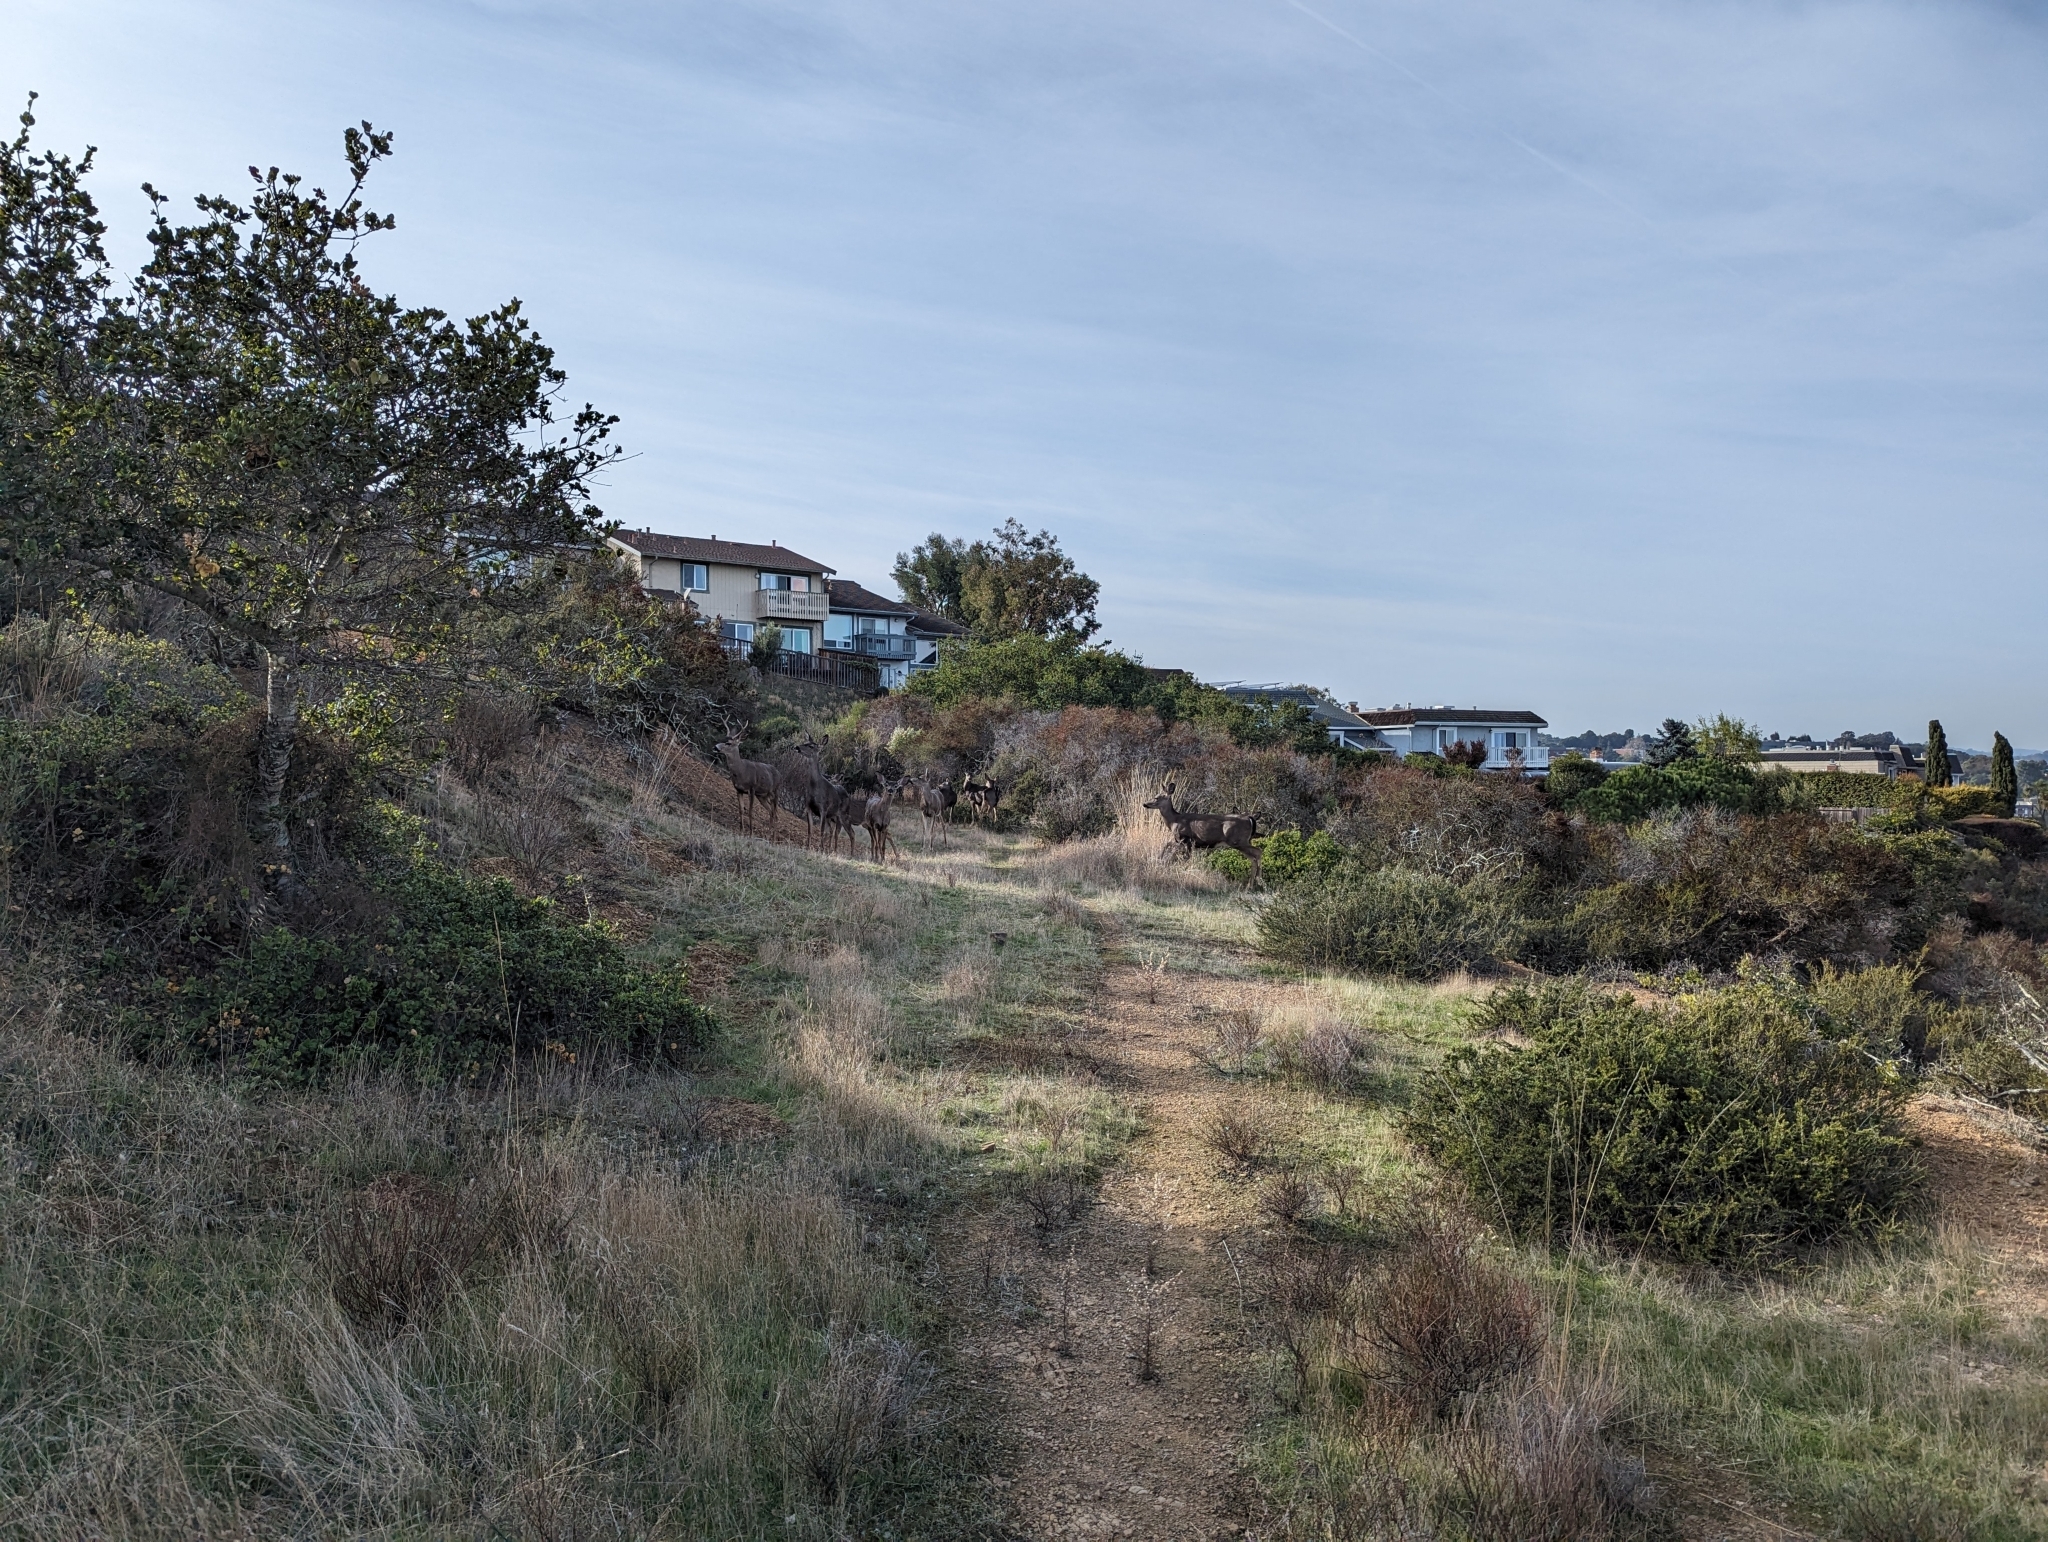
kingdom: Animalia
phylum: Chordata
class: Mammalia
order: Artiodactyla
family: Cervidae
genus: Odocoileus
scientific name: Odocoileus hemionus
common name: Mule deer
